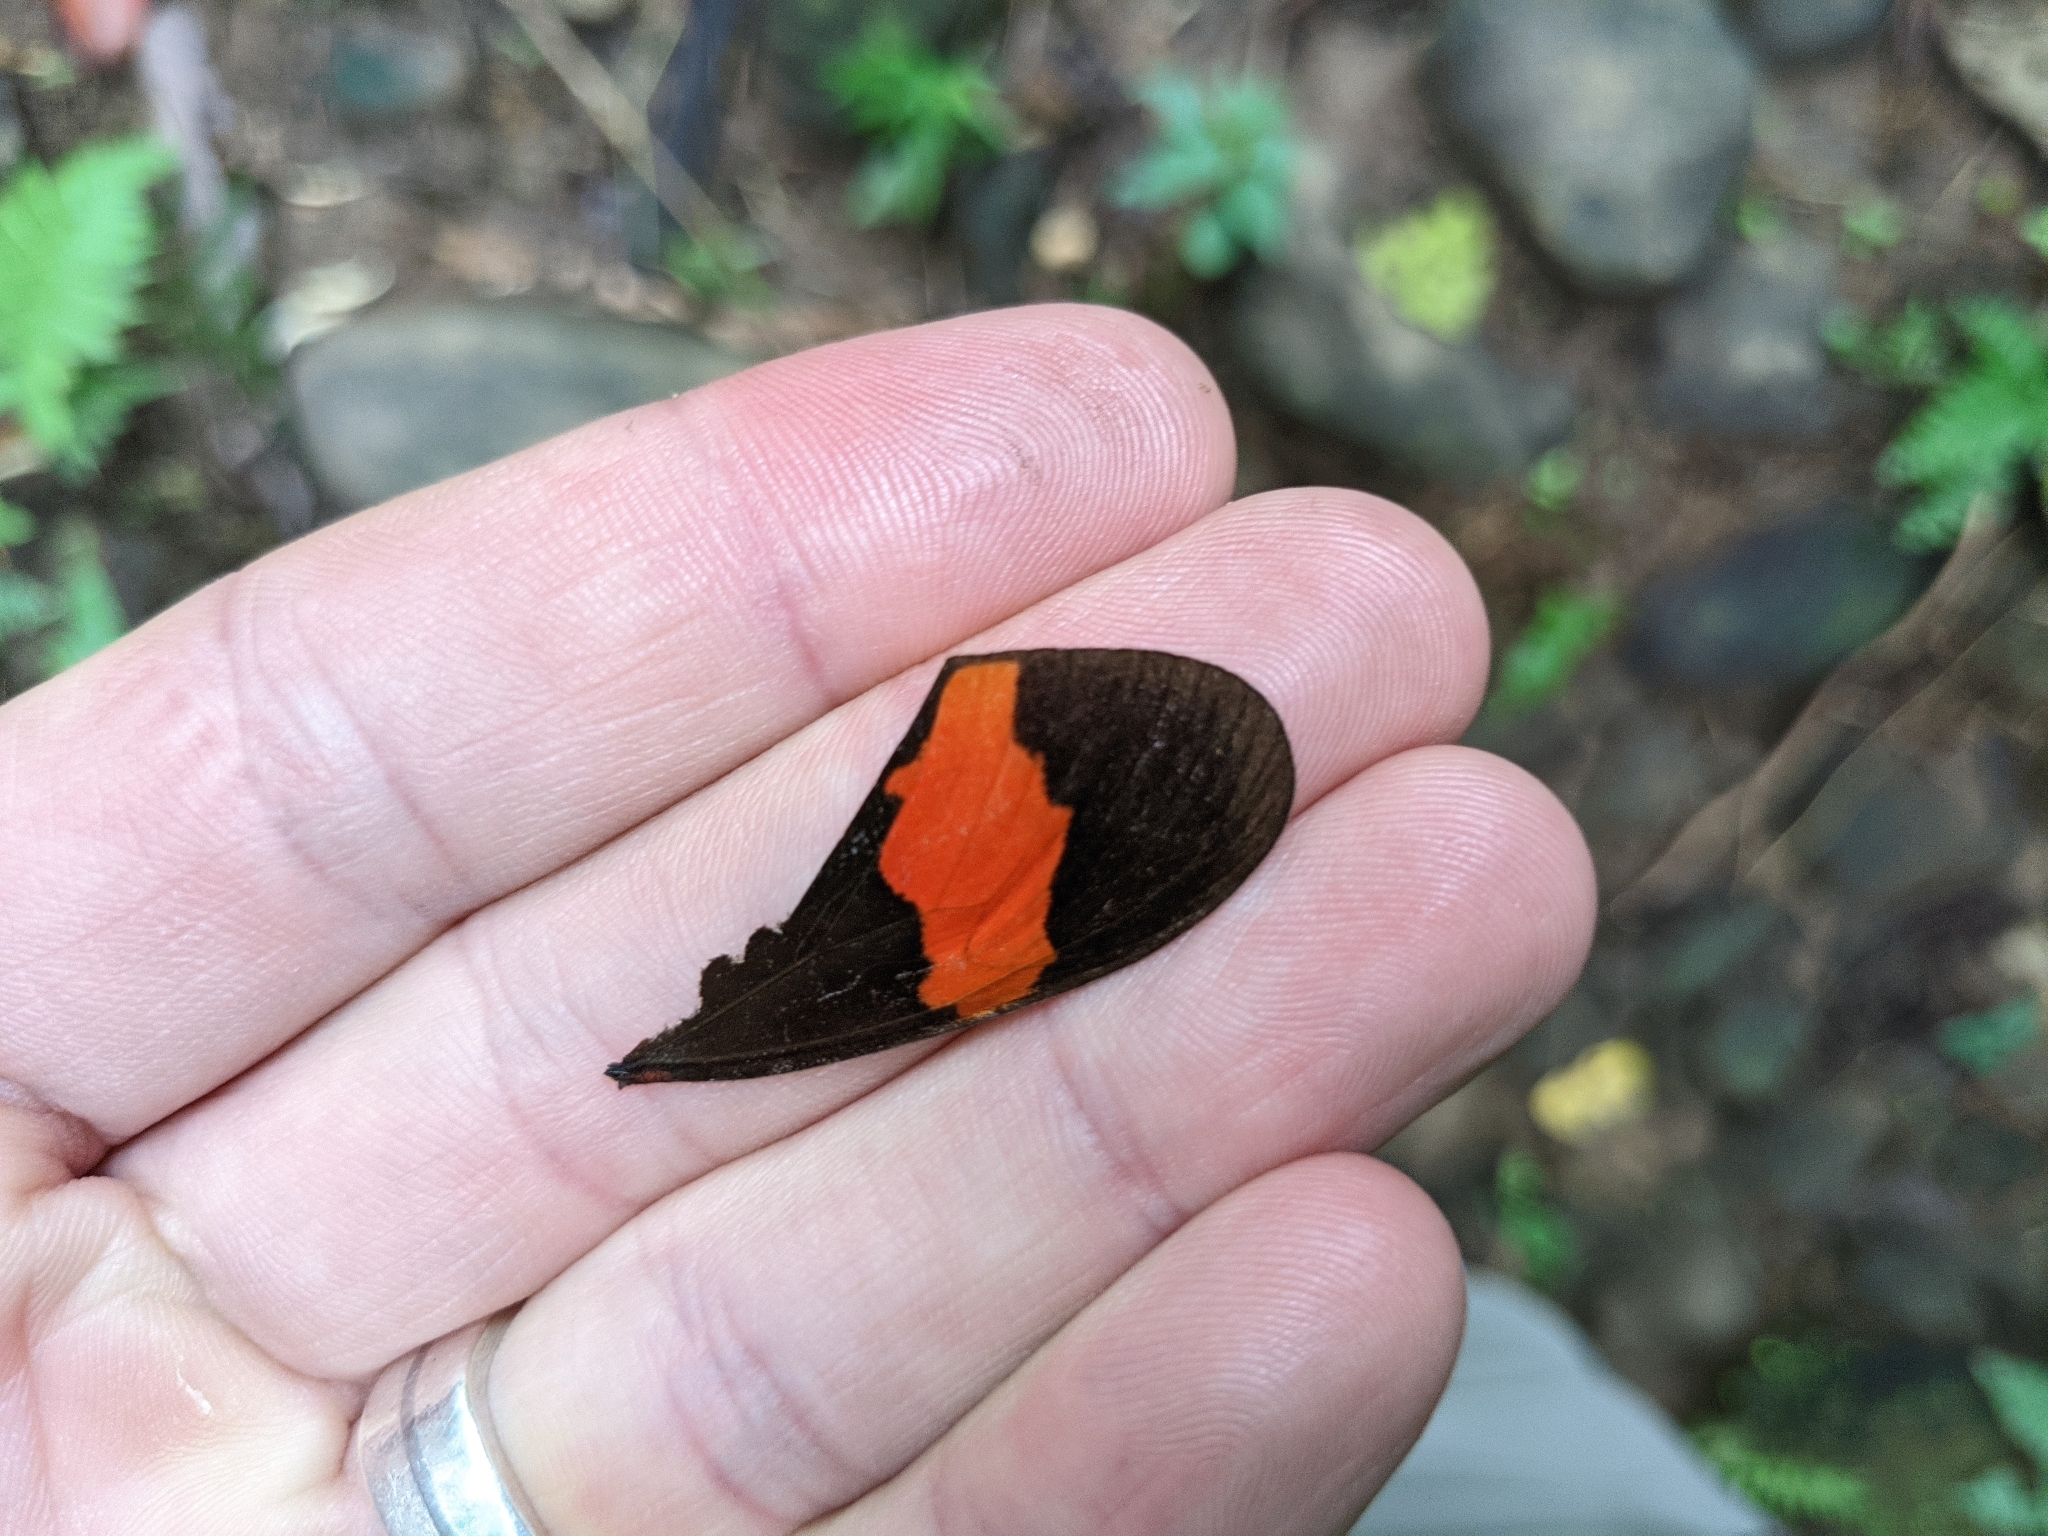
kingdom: Animalia
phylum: Arthropoda
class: Insecta
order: Lepidoptera
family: Nymphalidae
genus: Tirumala
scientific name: Tirumala petiverana
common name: Blue monarch
